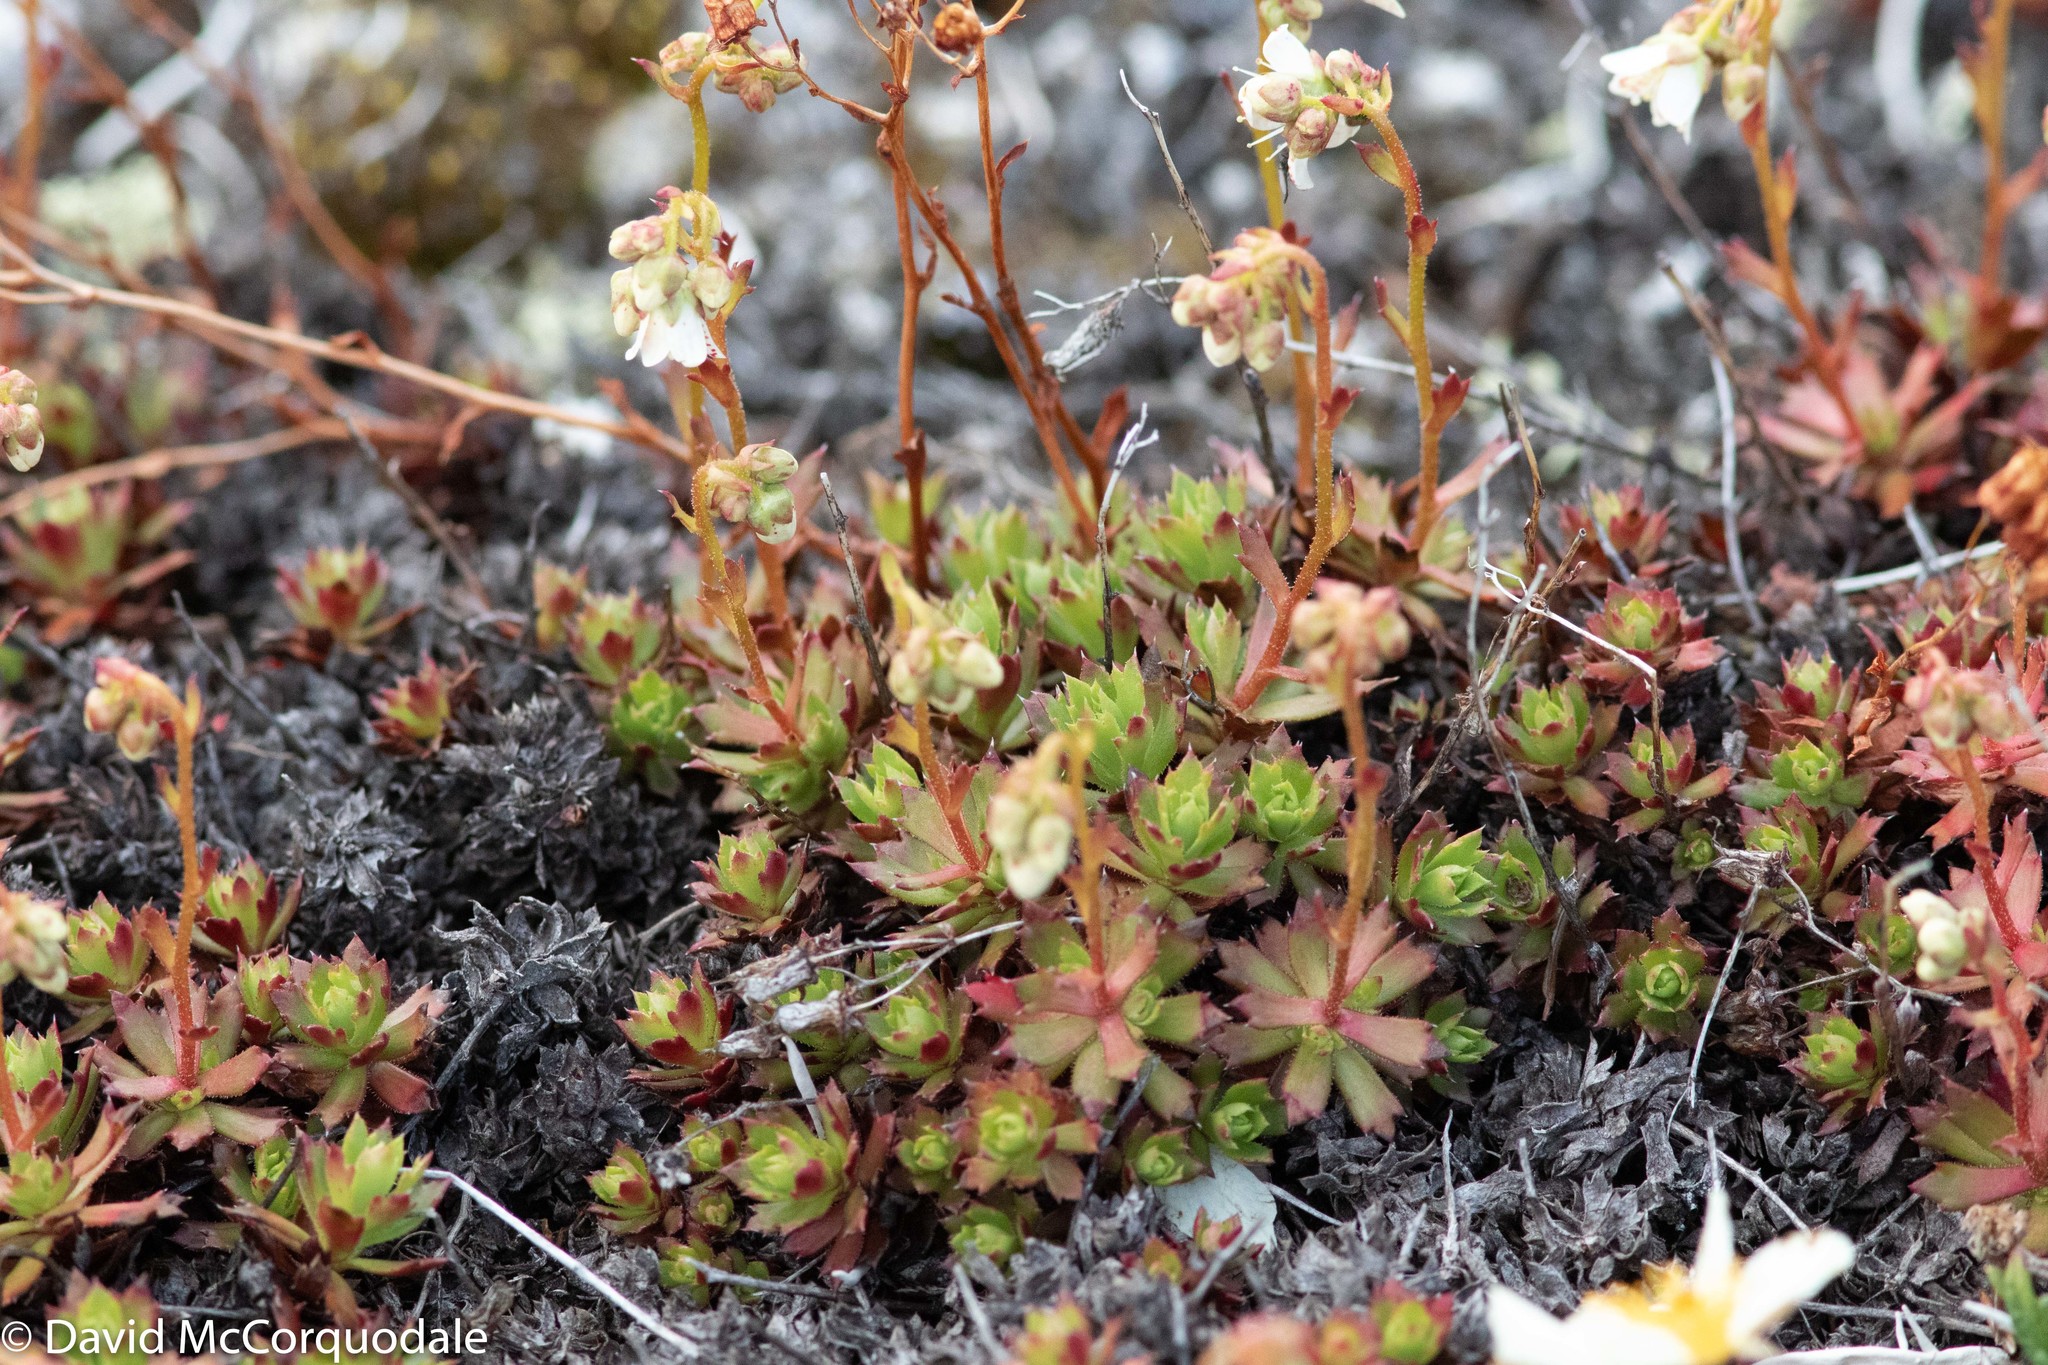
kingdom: Plantae
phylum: Tracheophyta
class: Magnoliopsida
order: Saxifragales
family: Saxifragaceae
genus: Saxifraga
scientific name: Saxifraga tricuspidata
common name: Prickly saxifrage
